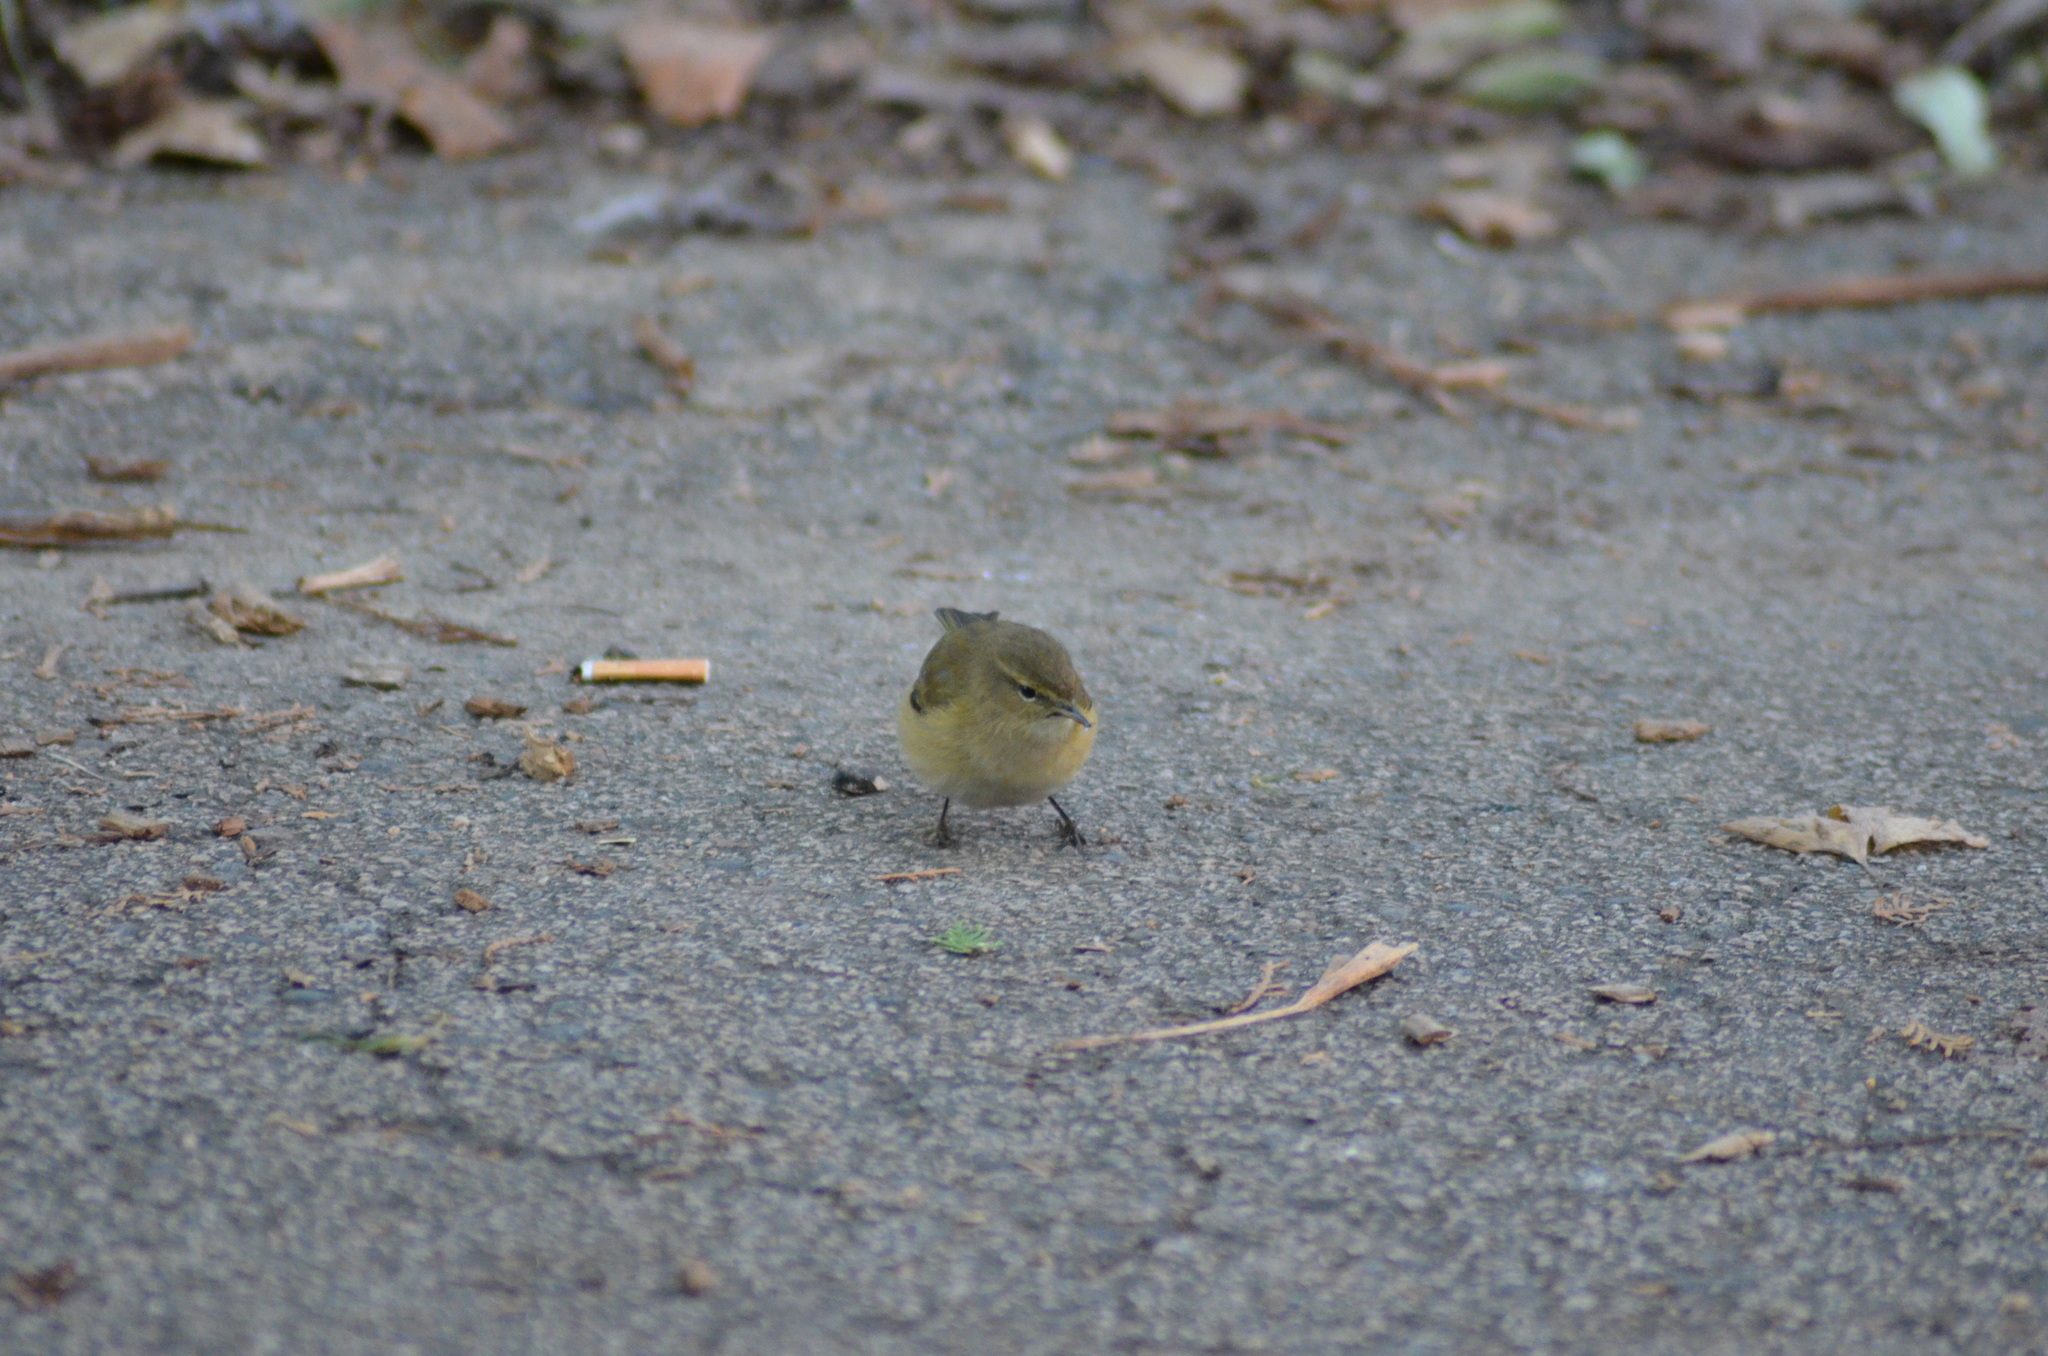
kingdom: Animalia
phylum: Chordata
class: Aves
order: Passeriformes
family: Phylloscopidae
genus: Phylloscopus
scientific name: Phylloscopus collybita
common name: Common chiffchaff
